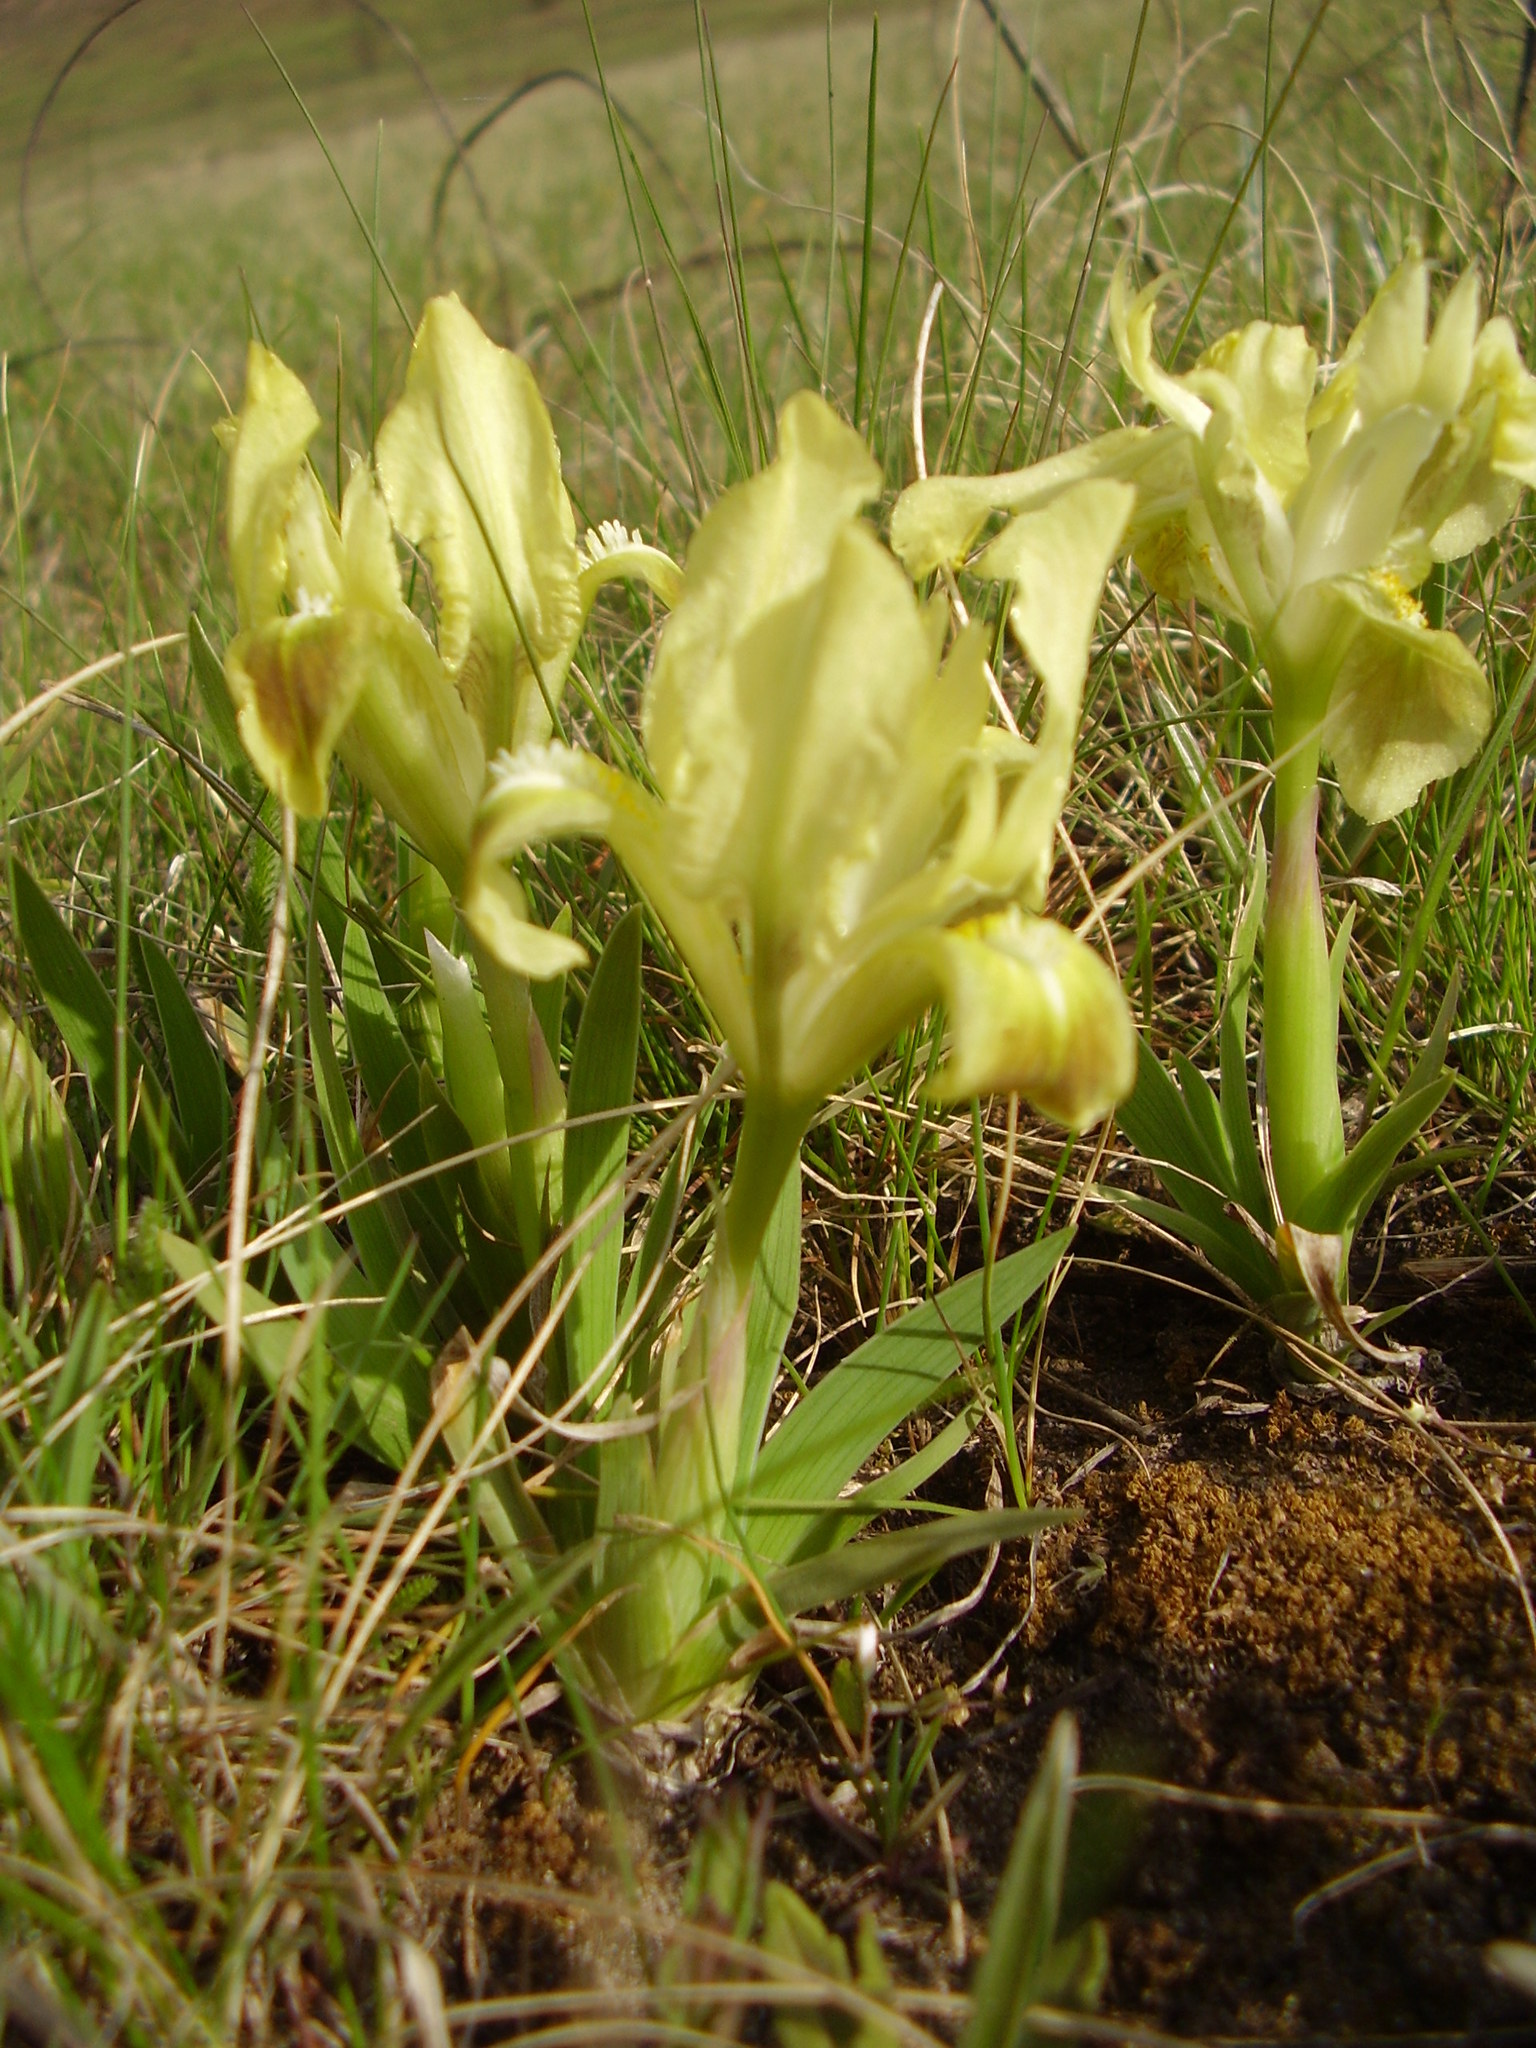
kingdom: Plantae
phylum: Tracheophyta
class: Liliopsida
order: Asparagales
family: Iridaceae
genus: Iris
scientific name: Iris pumila
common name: Dwarf iris
